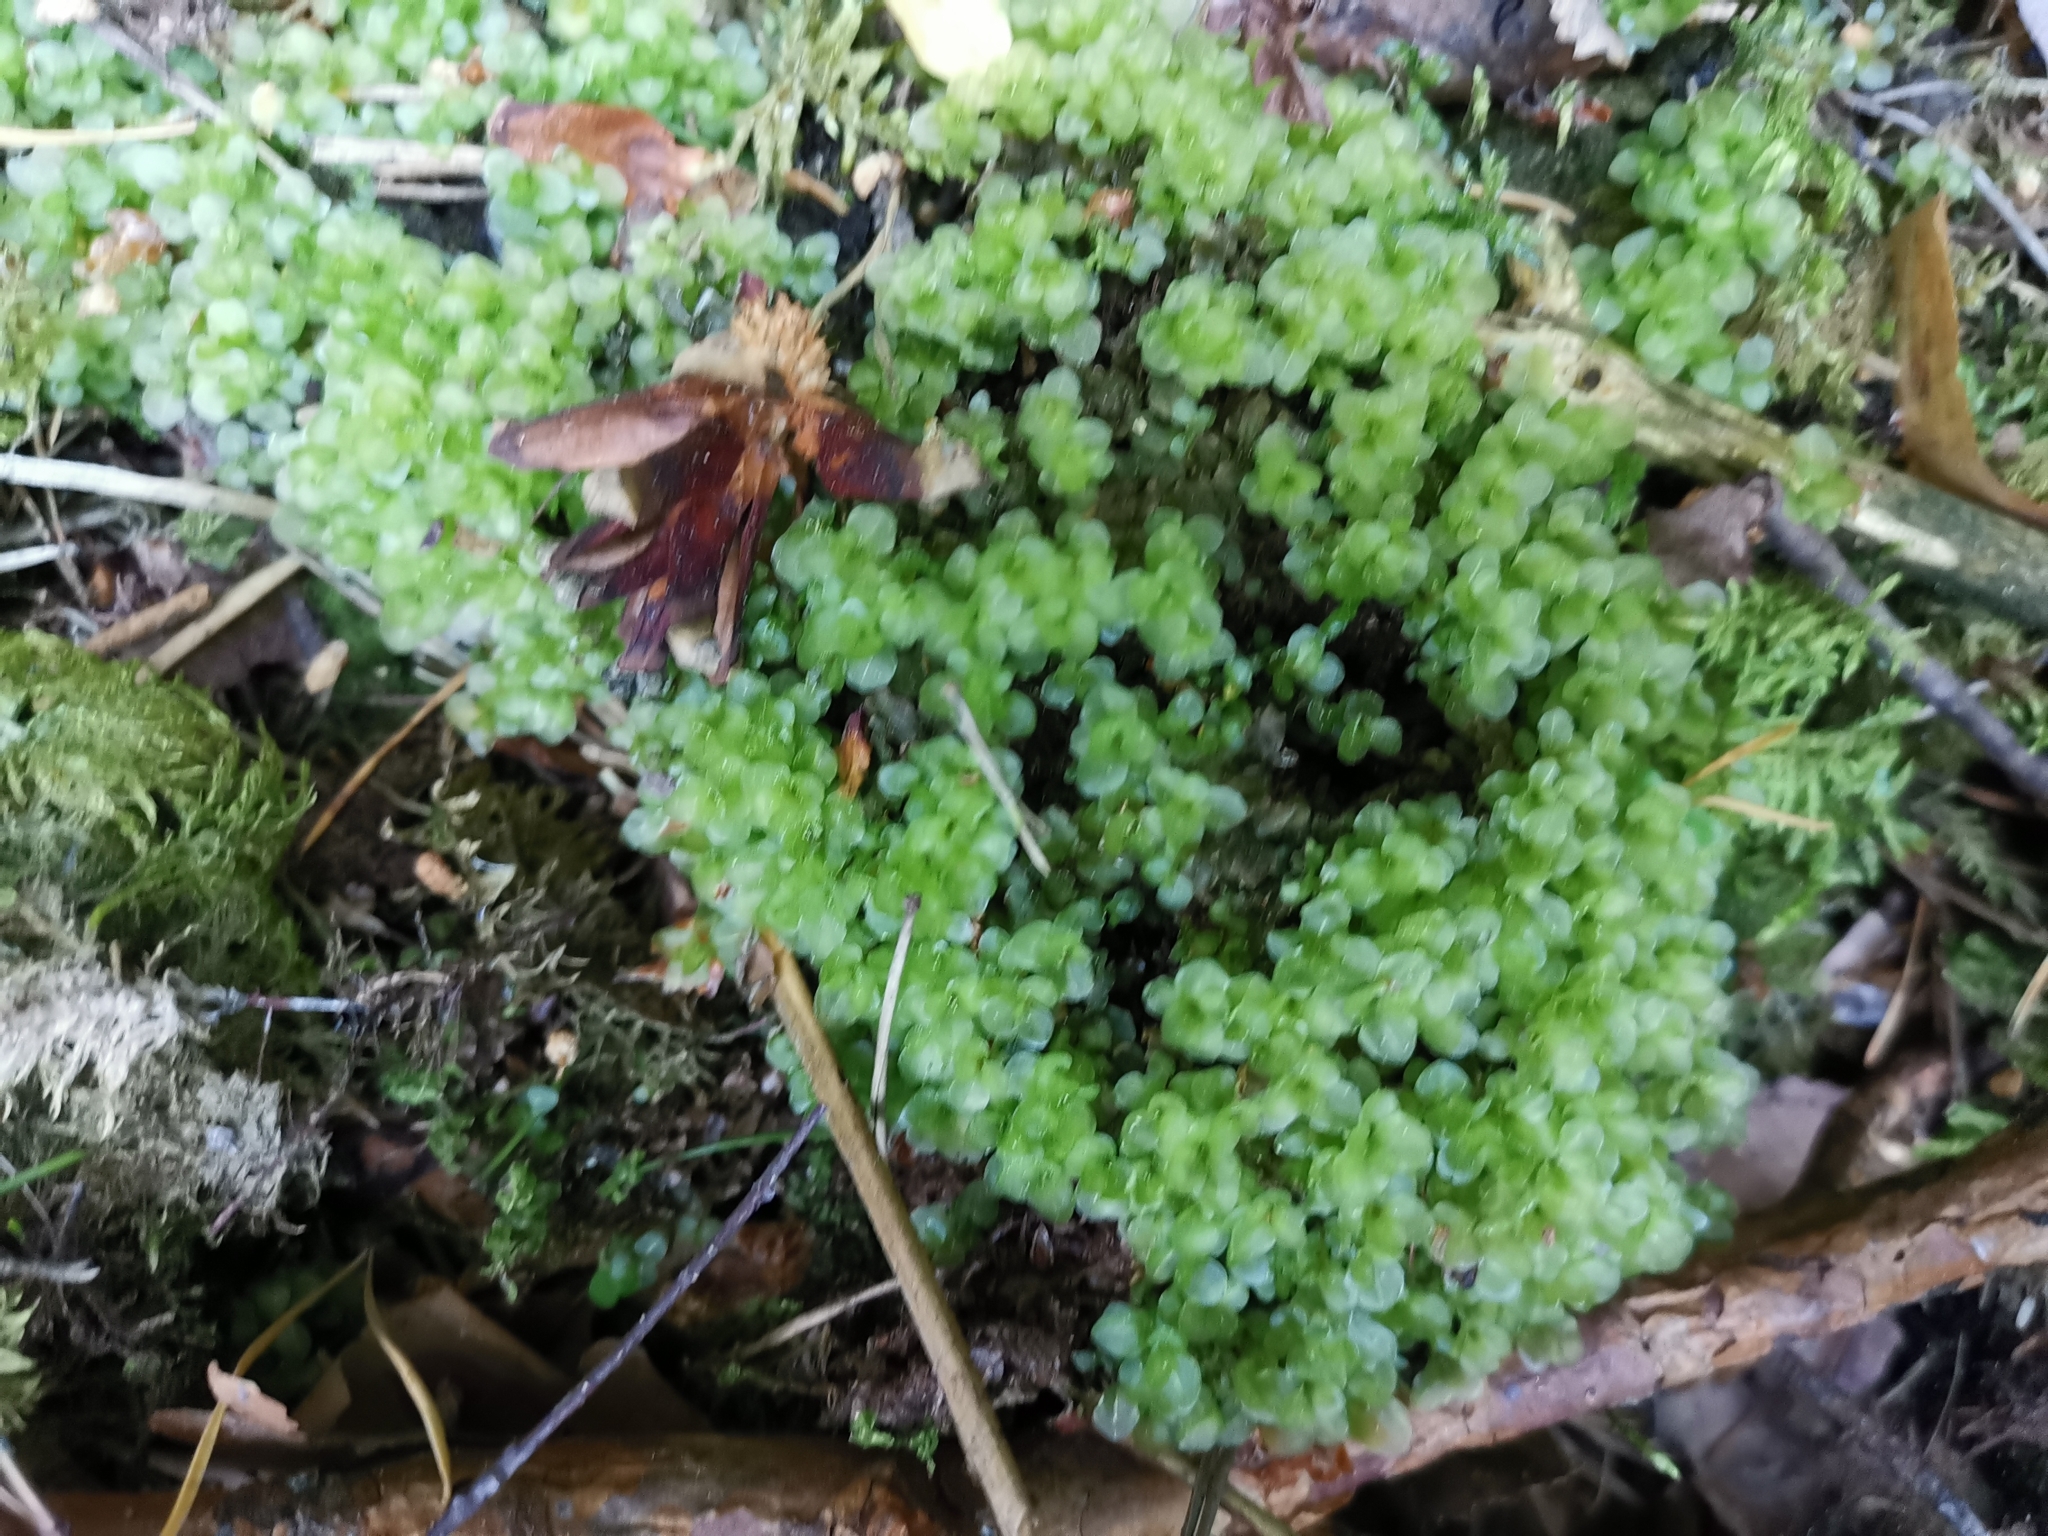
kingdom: Plantae
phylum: Bryophyta
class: Bryopsida
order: Bryales
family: Mniaceae
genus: Rhizomnium
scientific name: Rhizomnium punctatum
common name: Dotted leafy moss
